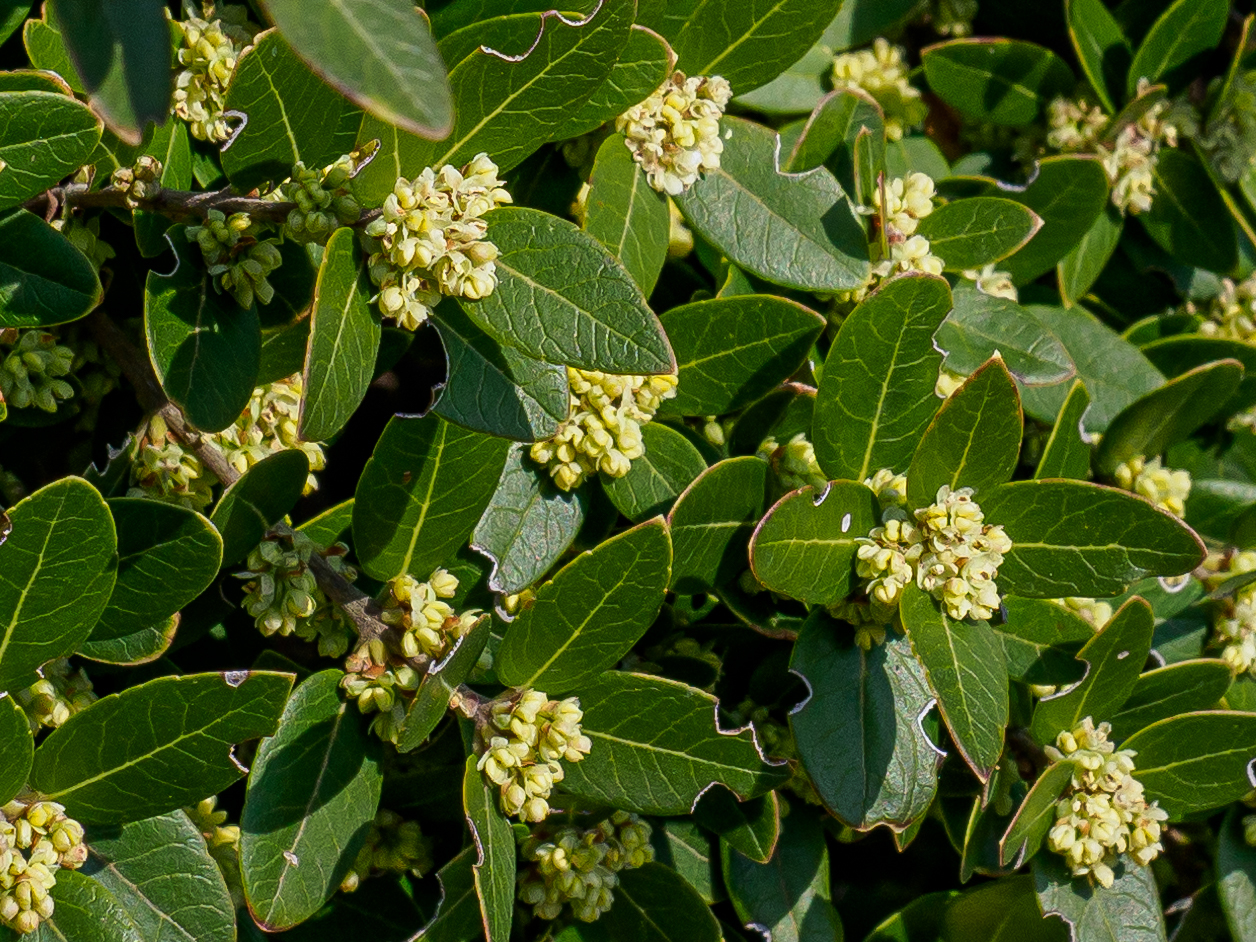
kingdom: Plantae
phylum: Tracheophyta
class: Magnoliopsida
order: Lamiales
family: Oleaceae
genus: Phillyrea
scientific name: Phillyrea latifolia
